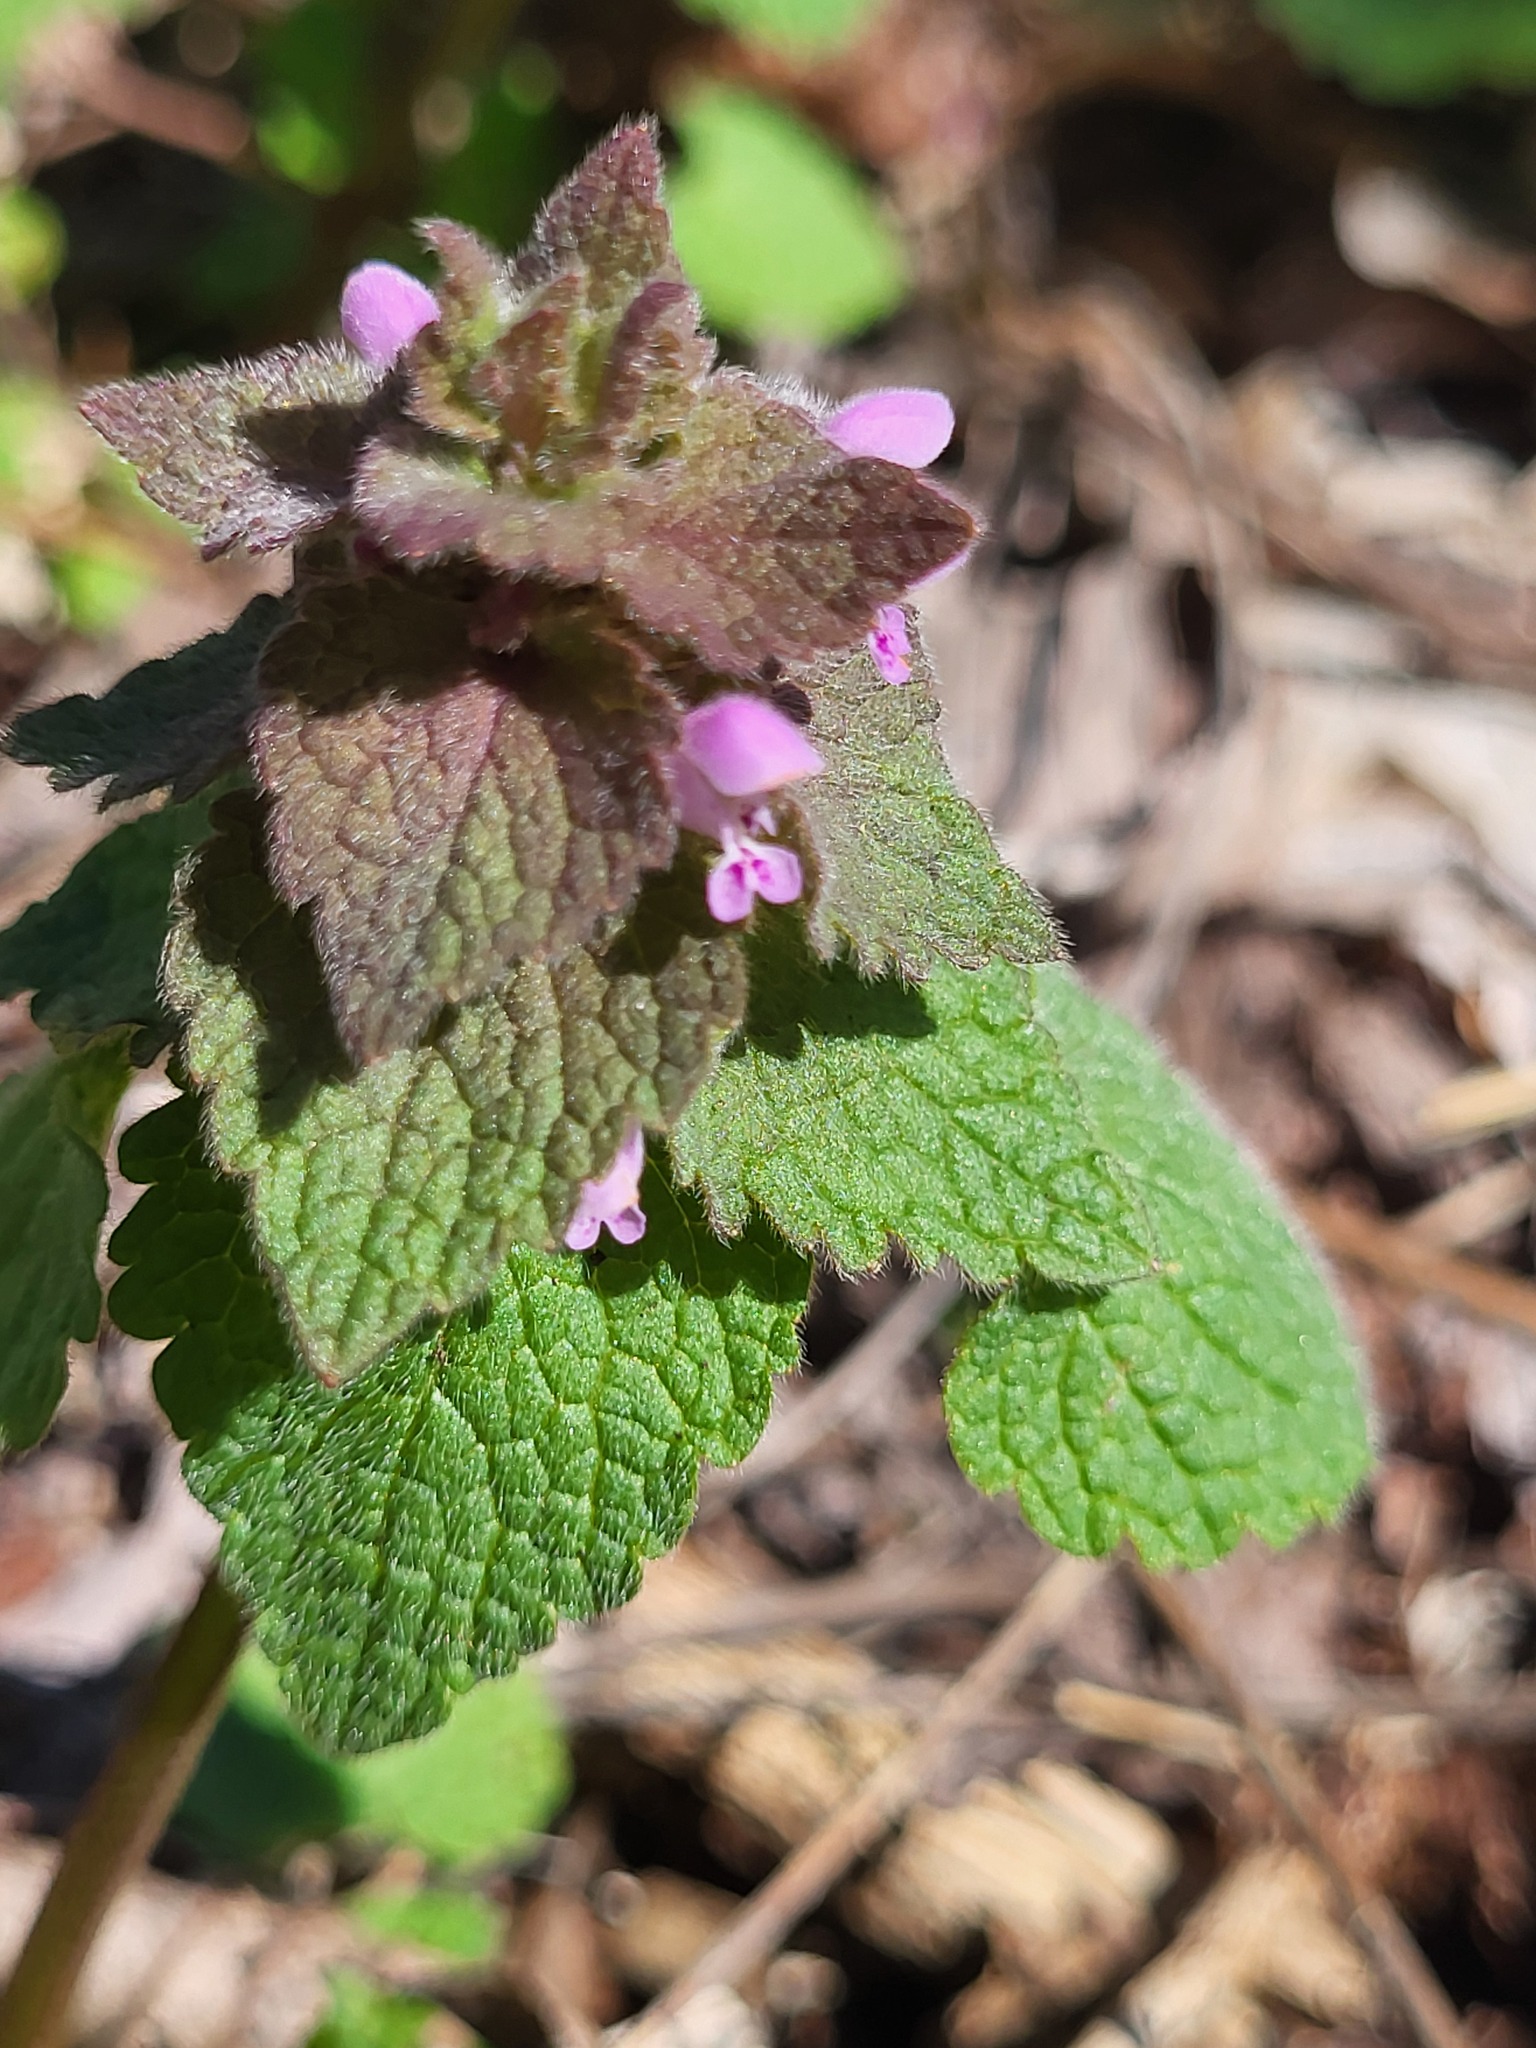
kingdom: Plantae
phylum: Tracheophyta
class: Magnoliopsida
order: Lamiales
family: Lamiaceae
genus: Lamium
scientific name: Lamium purpureum
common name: Red dead-nettle
